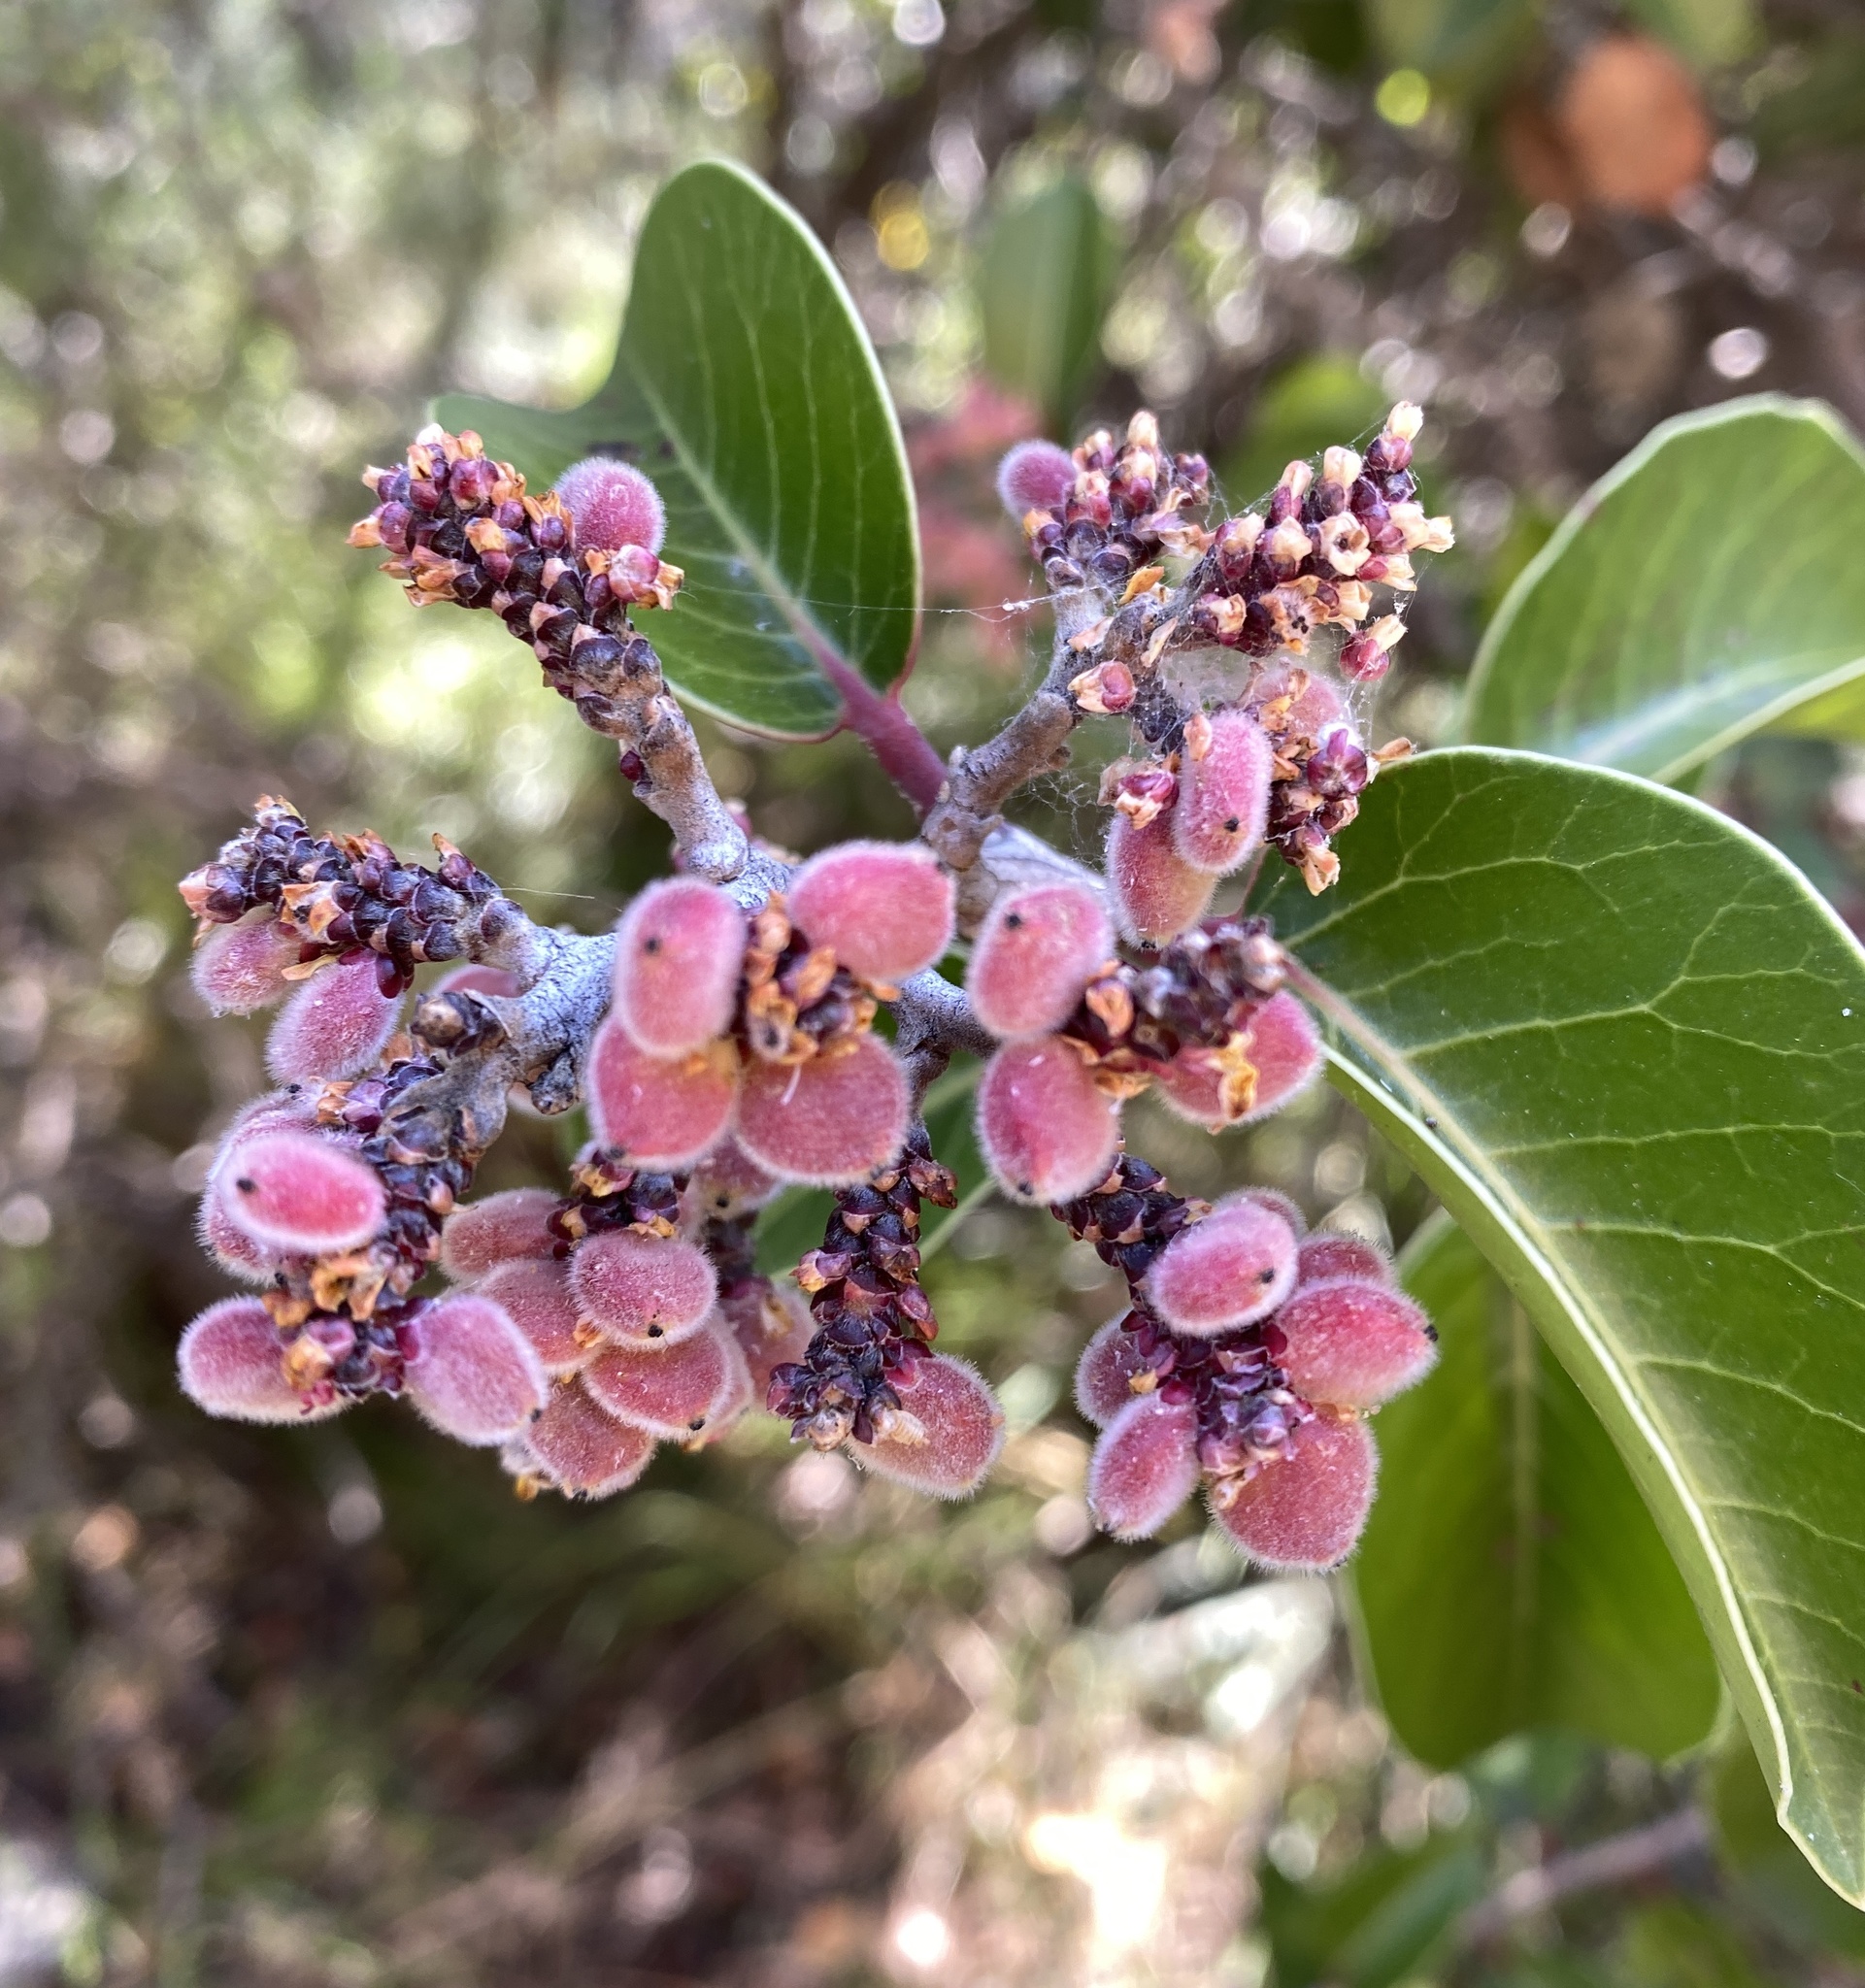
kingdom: Plantae
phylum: Tracheophyta
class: Magnoliopsida
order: Sapindales
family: Anacardiaceae
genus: Rhus
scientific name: Rhus ovata
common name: Sugar sumac
